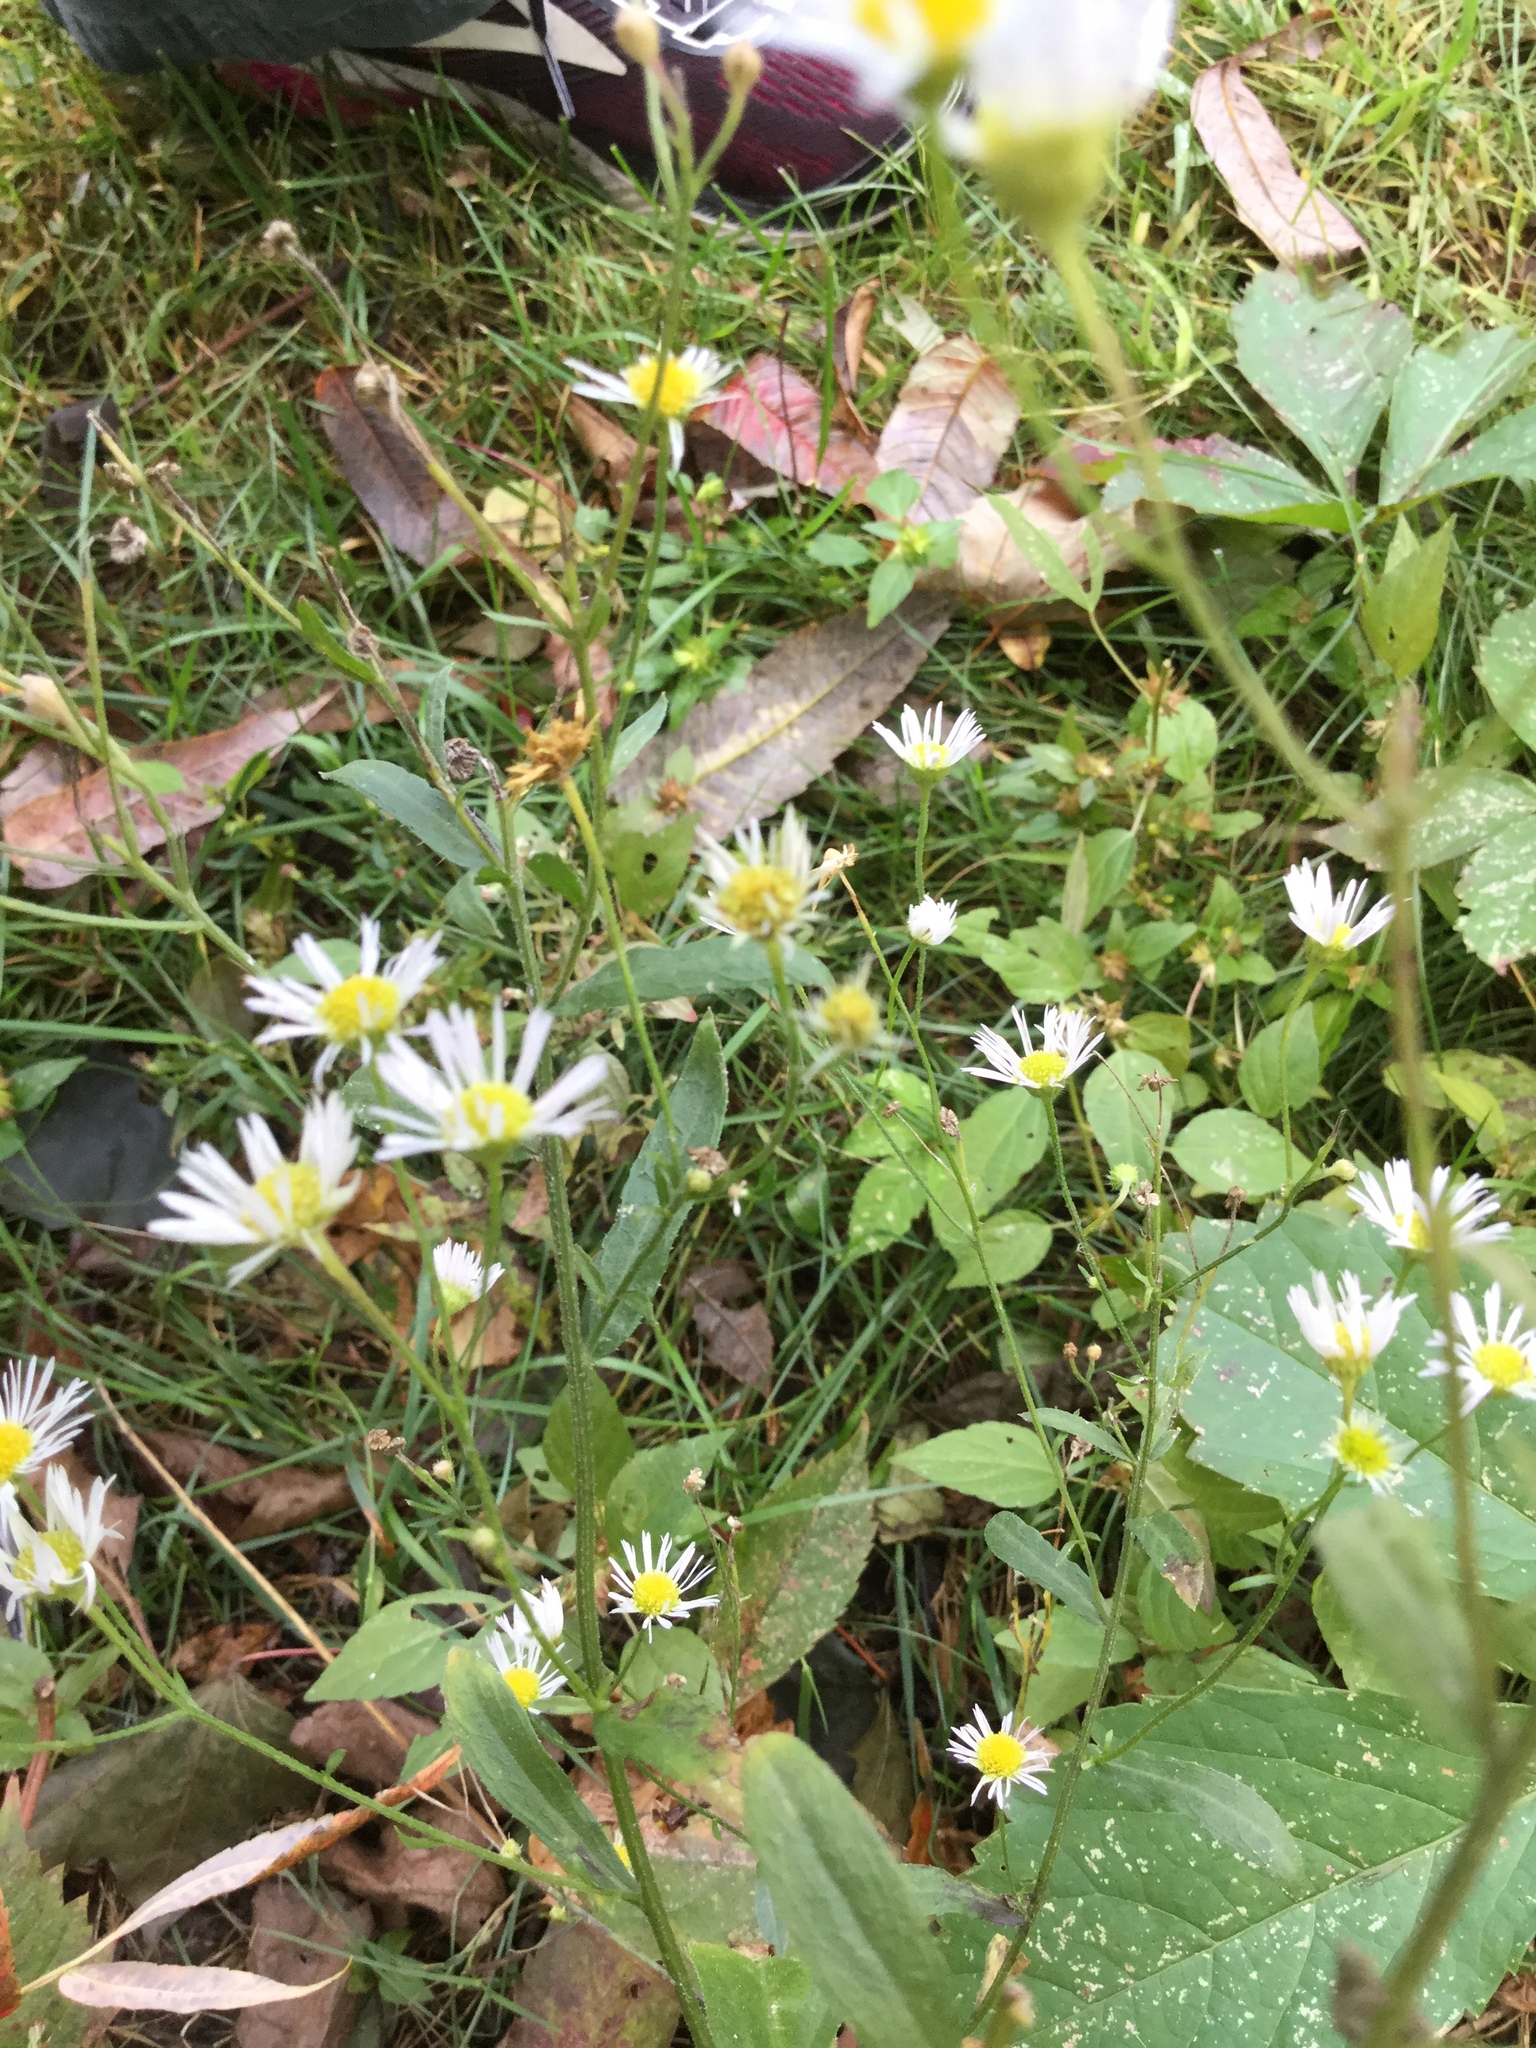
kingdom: Plantae
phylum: Tracheophyta
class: Magnoliopsida
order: Asterales
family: Asteraceae
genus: Erigeron
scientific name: Erigeron strigosus
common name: Common eastern fleabane
